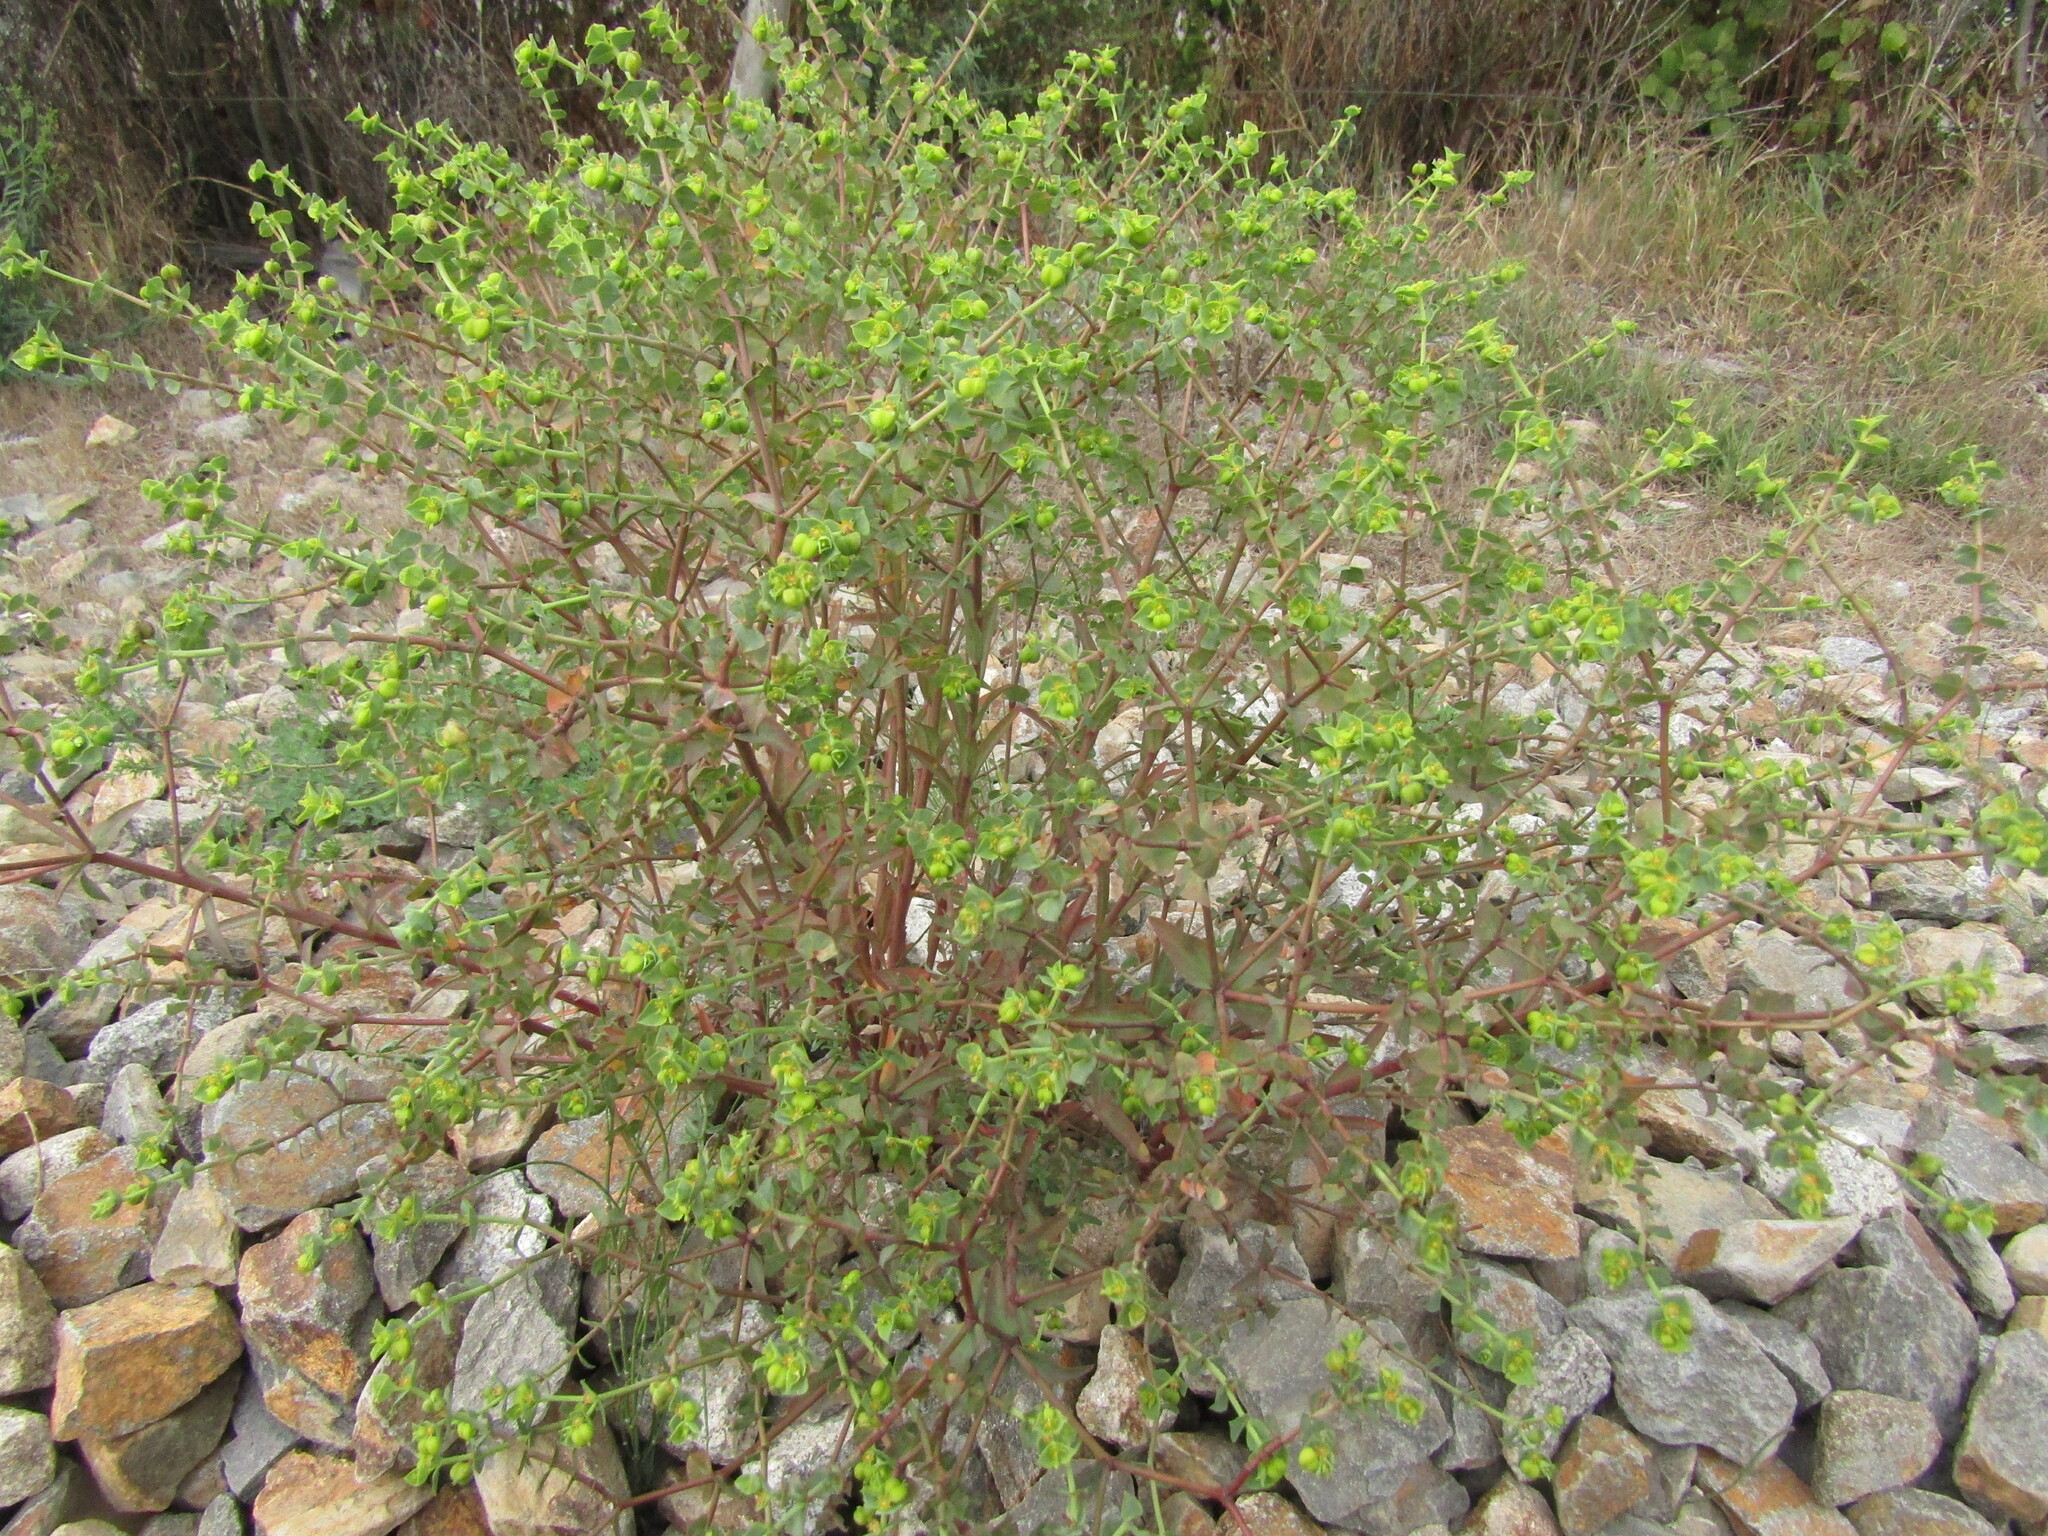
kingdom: Plantae
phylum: Tracheophyta
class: Magnoliopsida
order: Malpighiales
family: Euphorbiaceae
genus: Euphorbia
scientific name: Euphorbia terracina
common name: Geraldton carnation weed
